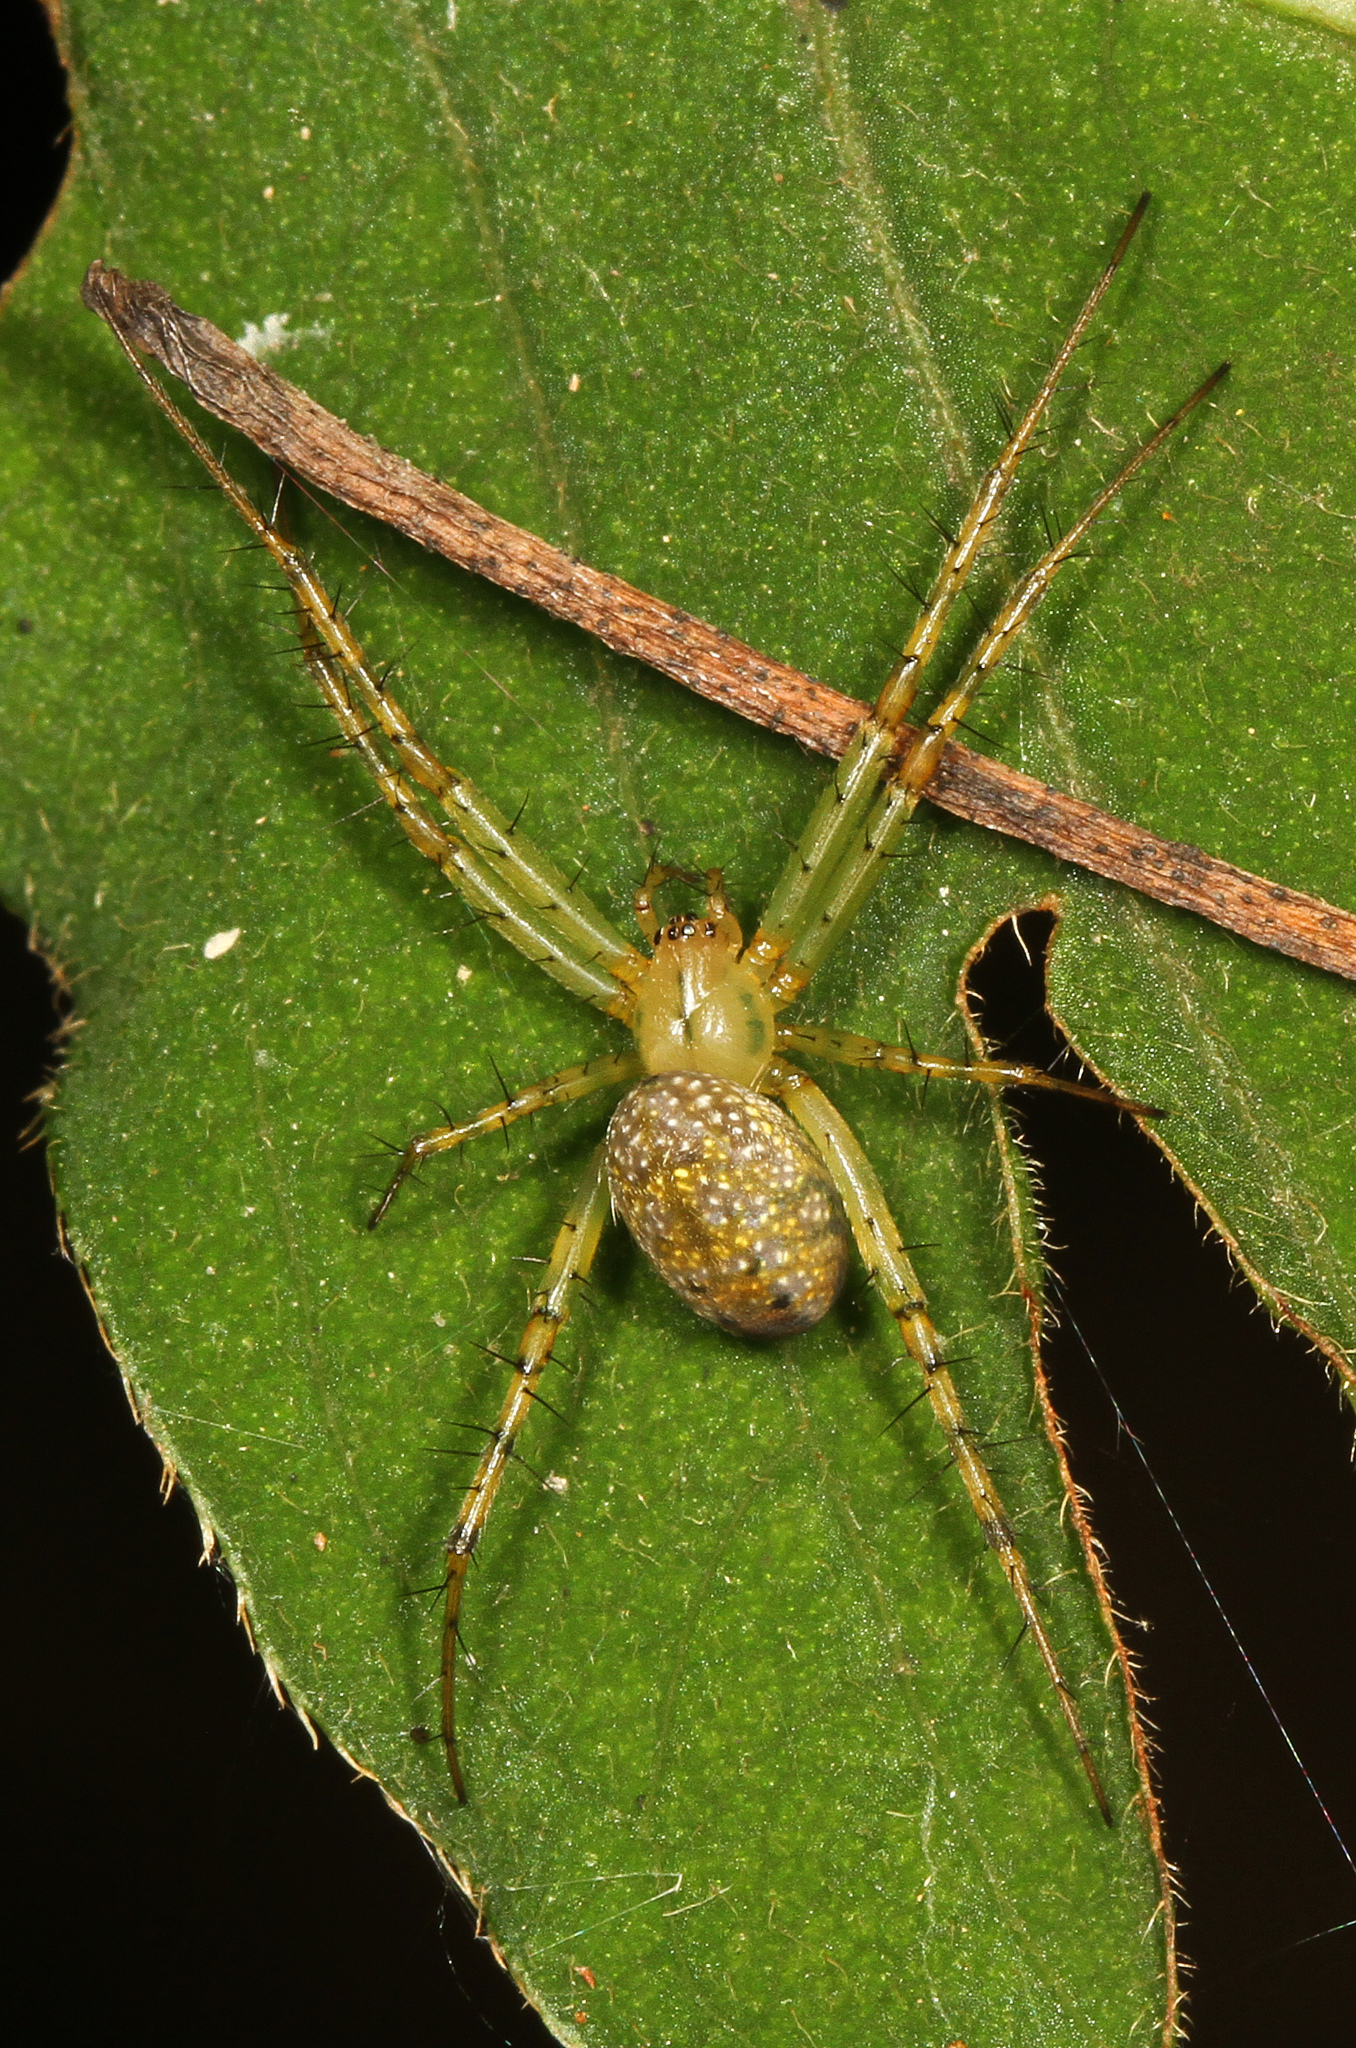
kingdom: Animalia
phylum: Arthropoda
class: Arachnida
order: Araneae
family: Araneidae
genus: Mangora
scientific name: Mangora maculata
